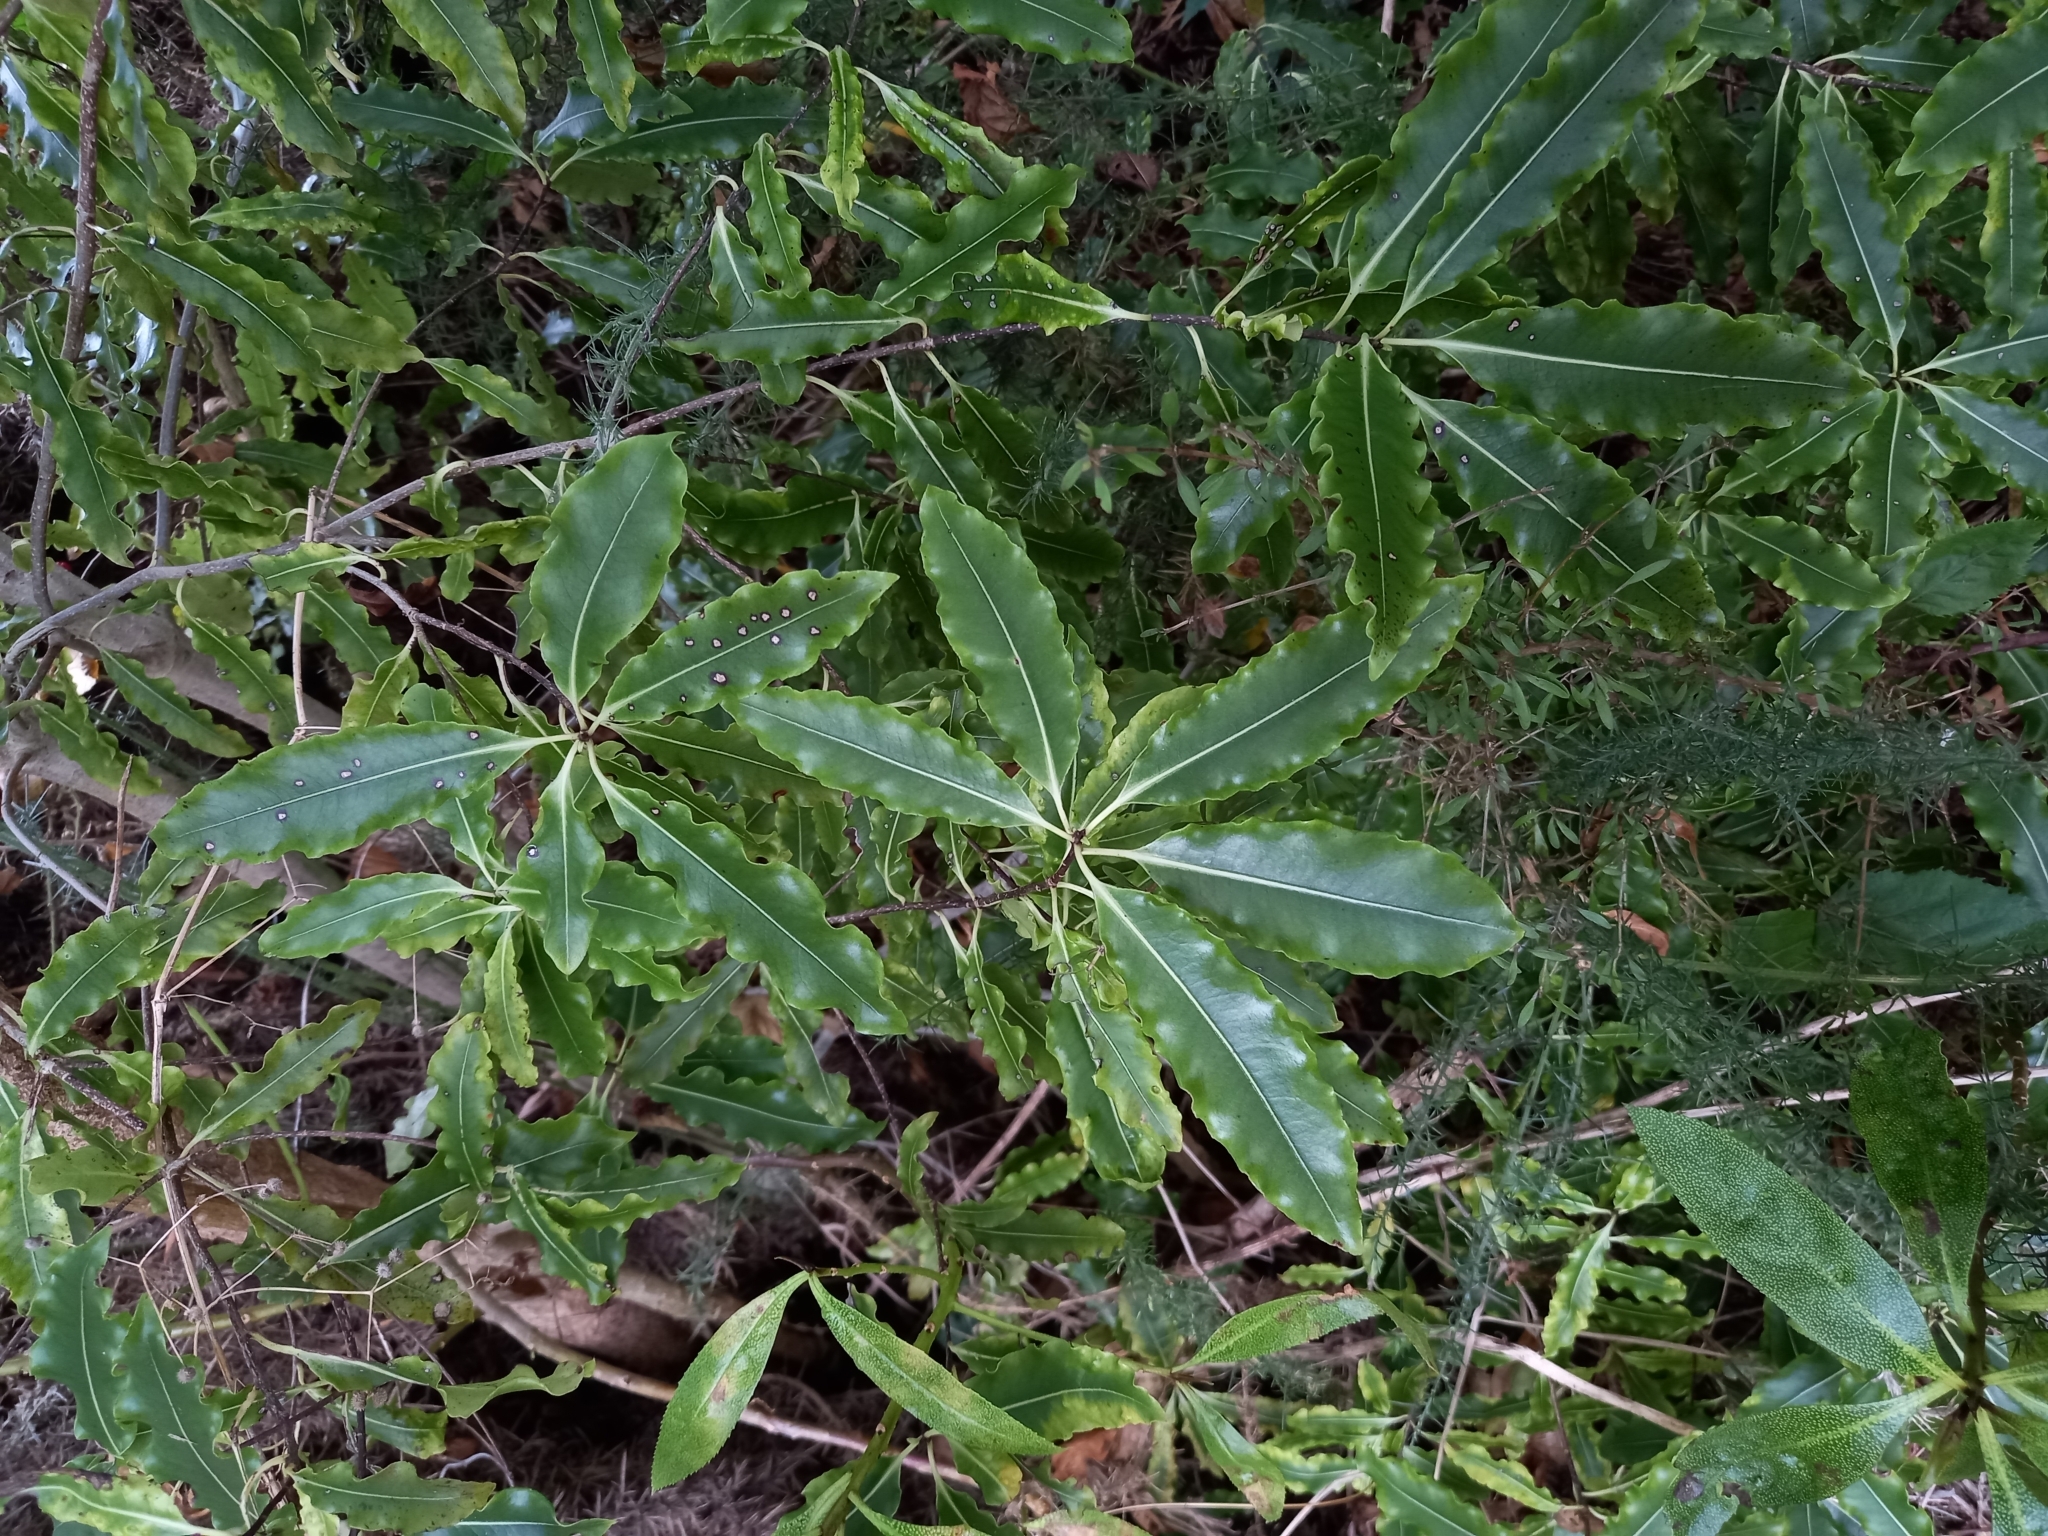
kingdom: Plantae
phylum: Tracheophyta
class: Magnoliopsida
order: Apiales
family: Pittosporaceae
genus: Pittosporum
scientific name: Pittosporum eugenioides
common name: Lemonwood
